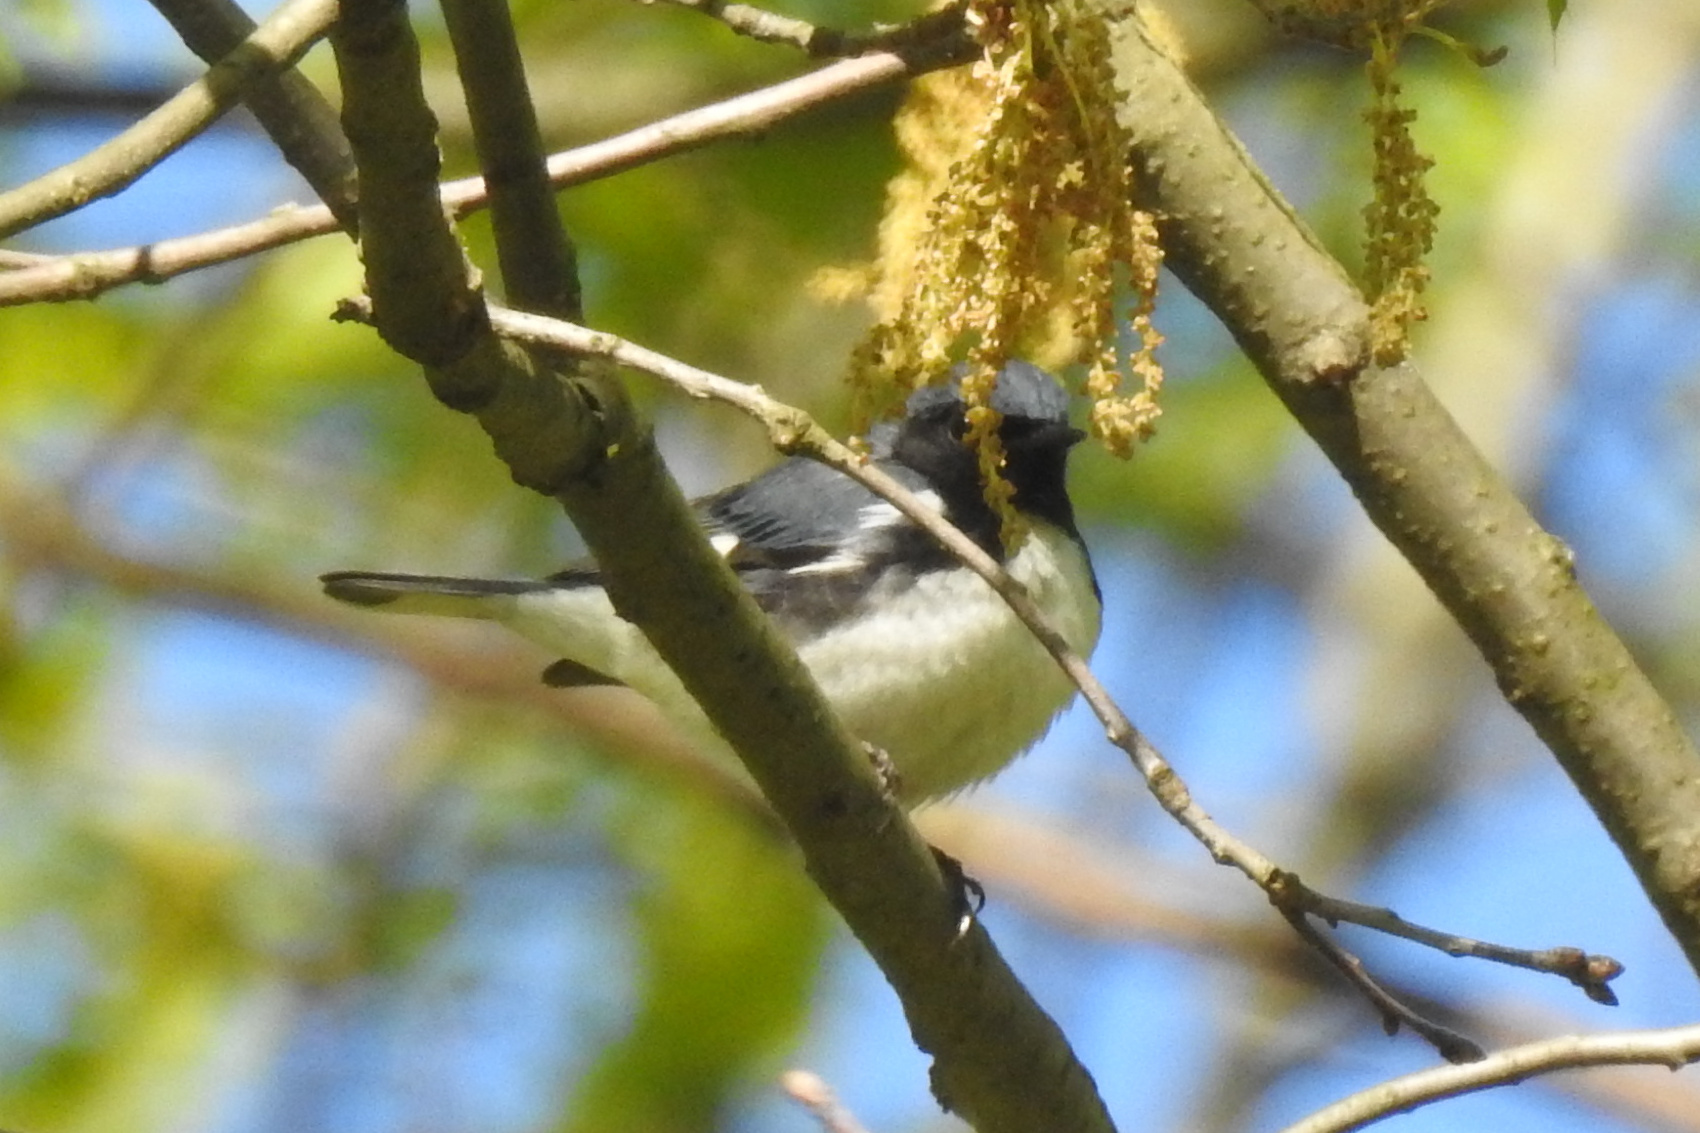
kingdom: Animalia
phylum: Chordata
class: Aves
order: Passeriformes
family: Parulidae
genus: Setophaga
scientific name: Setophaga caerulescens
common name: Black-throated blue warbler
